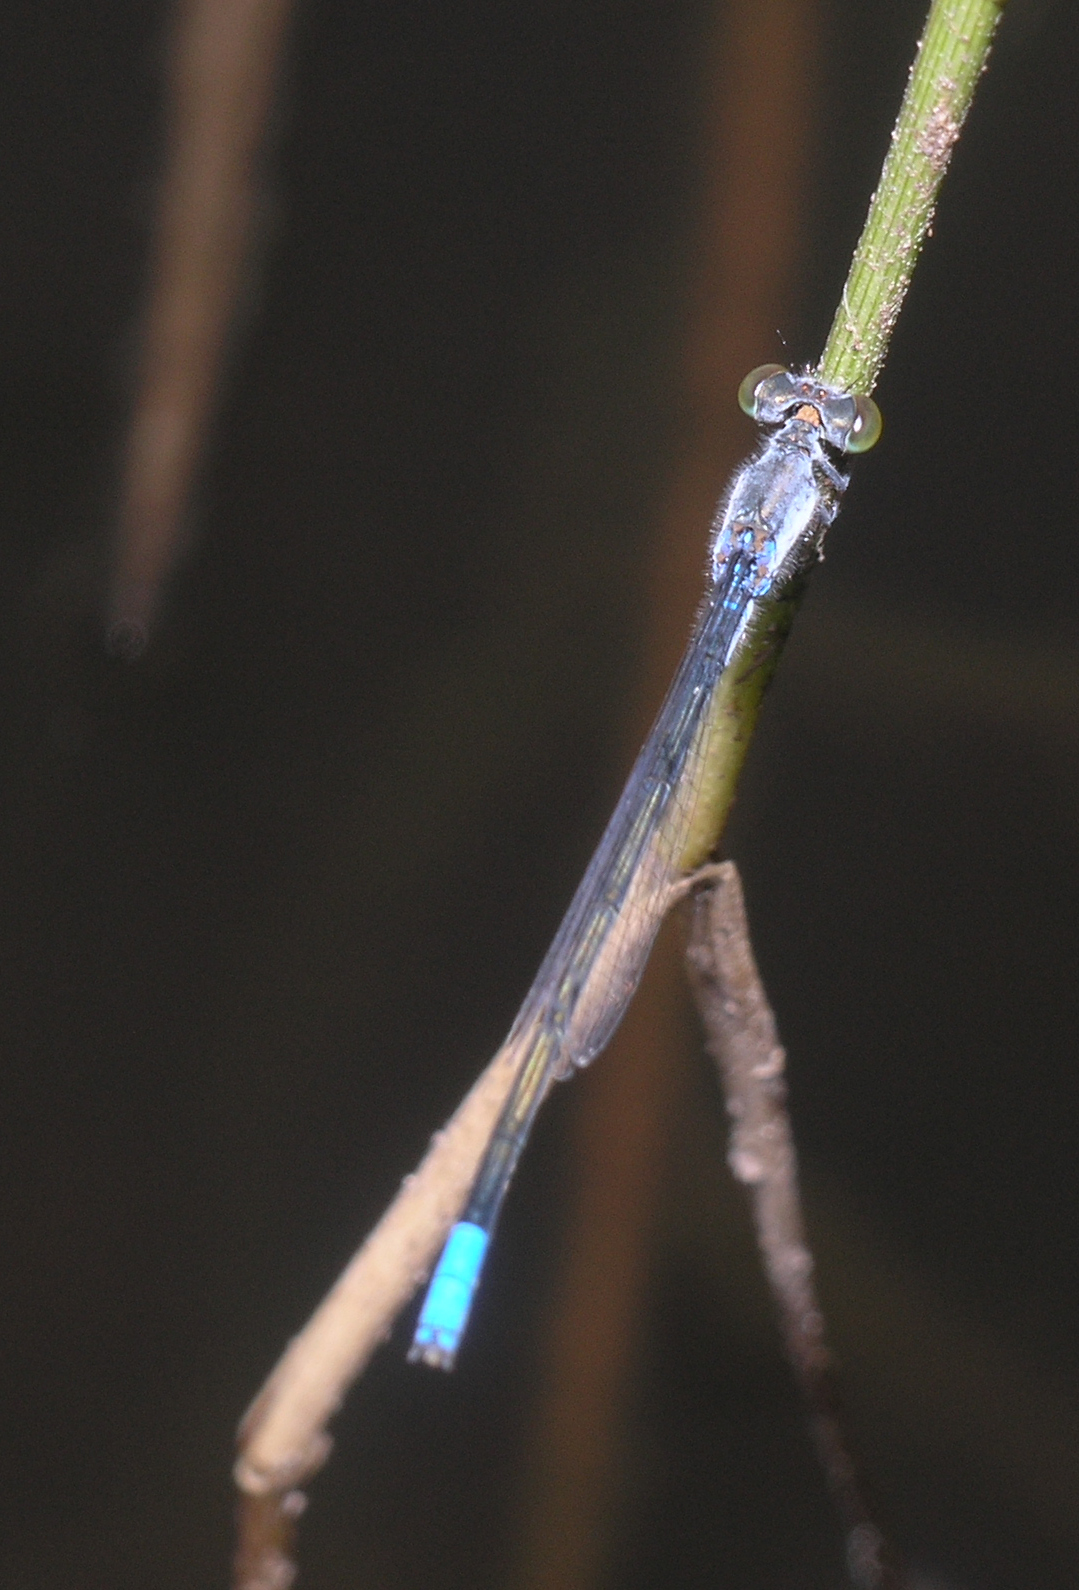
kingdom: Animalia
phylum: Arthropoda
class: Insecta
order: Odonata
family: Coenagrionidae
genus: Paracercion
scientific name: Paracercion calamorum
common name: Dusky lilysquatter
